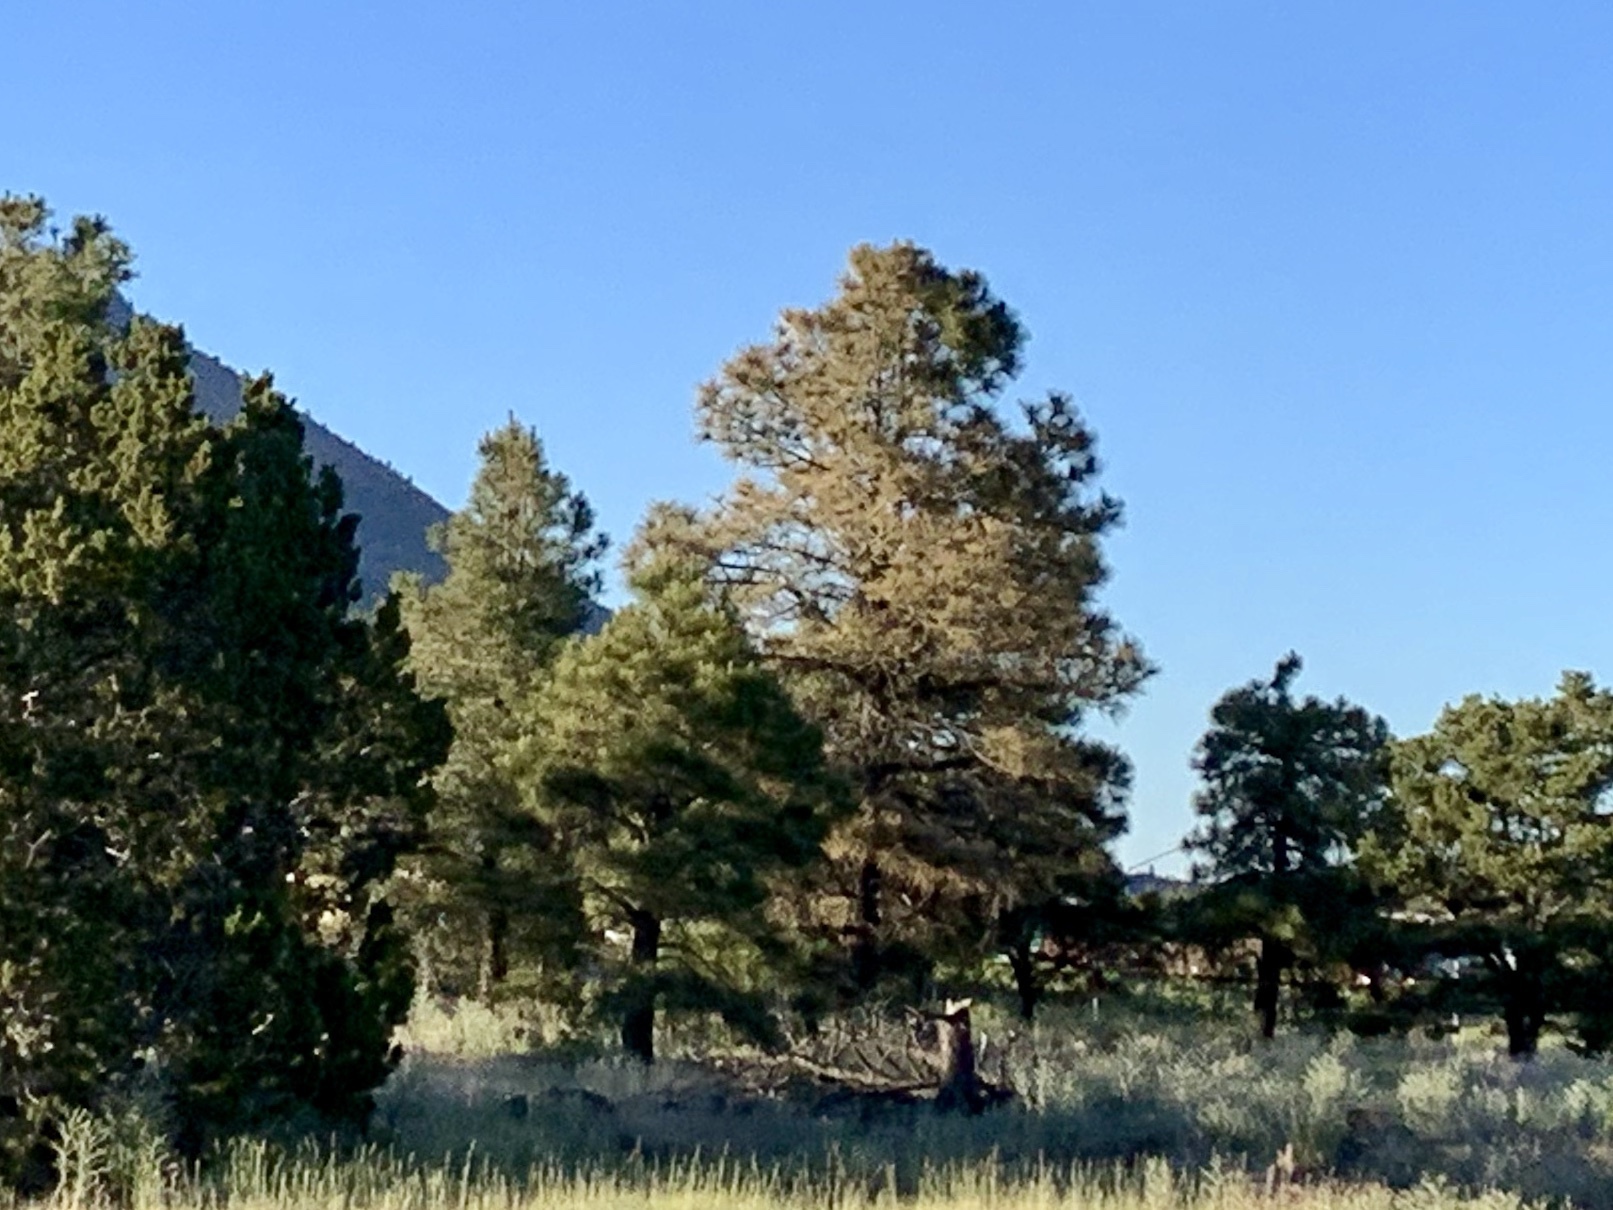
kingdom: Plantae
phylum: Tracheophyta
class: Pinopsida
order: Pinales
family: Pinaceae
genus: Pinus
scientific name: Pinus ponderosa
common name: Western yellow-pine
